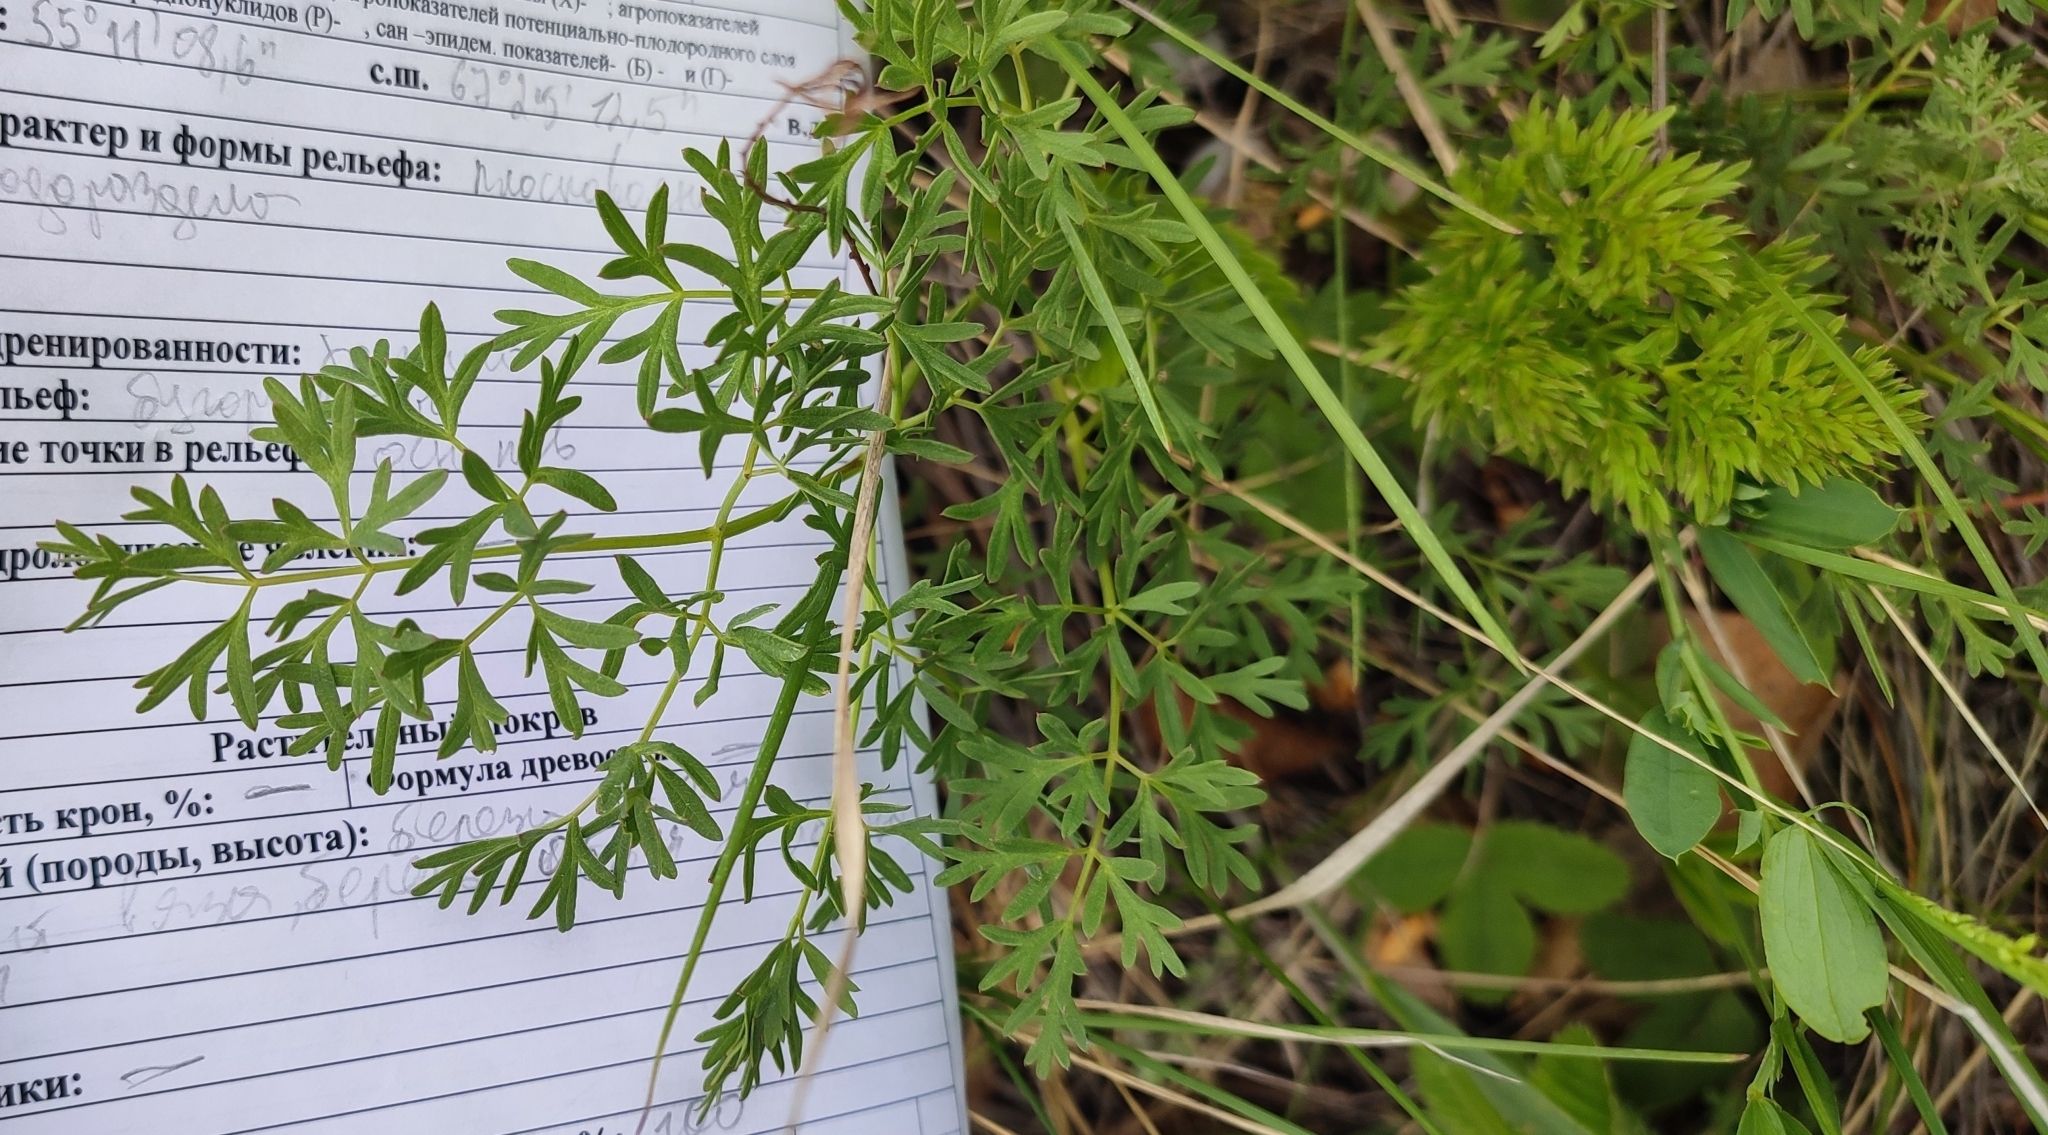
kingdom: Plantae
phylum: Tracheophyta
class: Magnoliopsida
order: Apiales
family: Apiaceae
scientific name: Apiaceae
